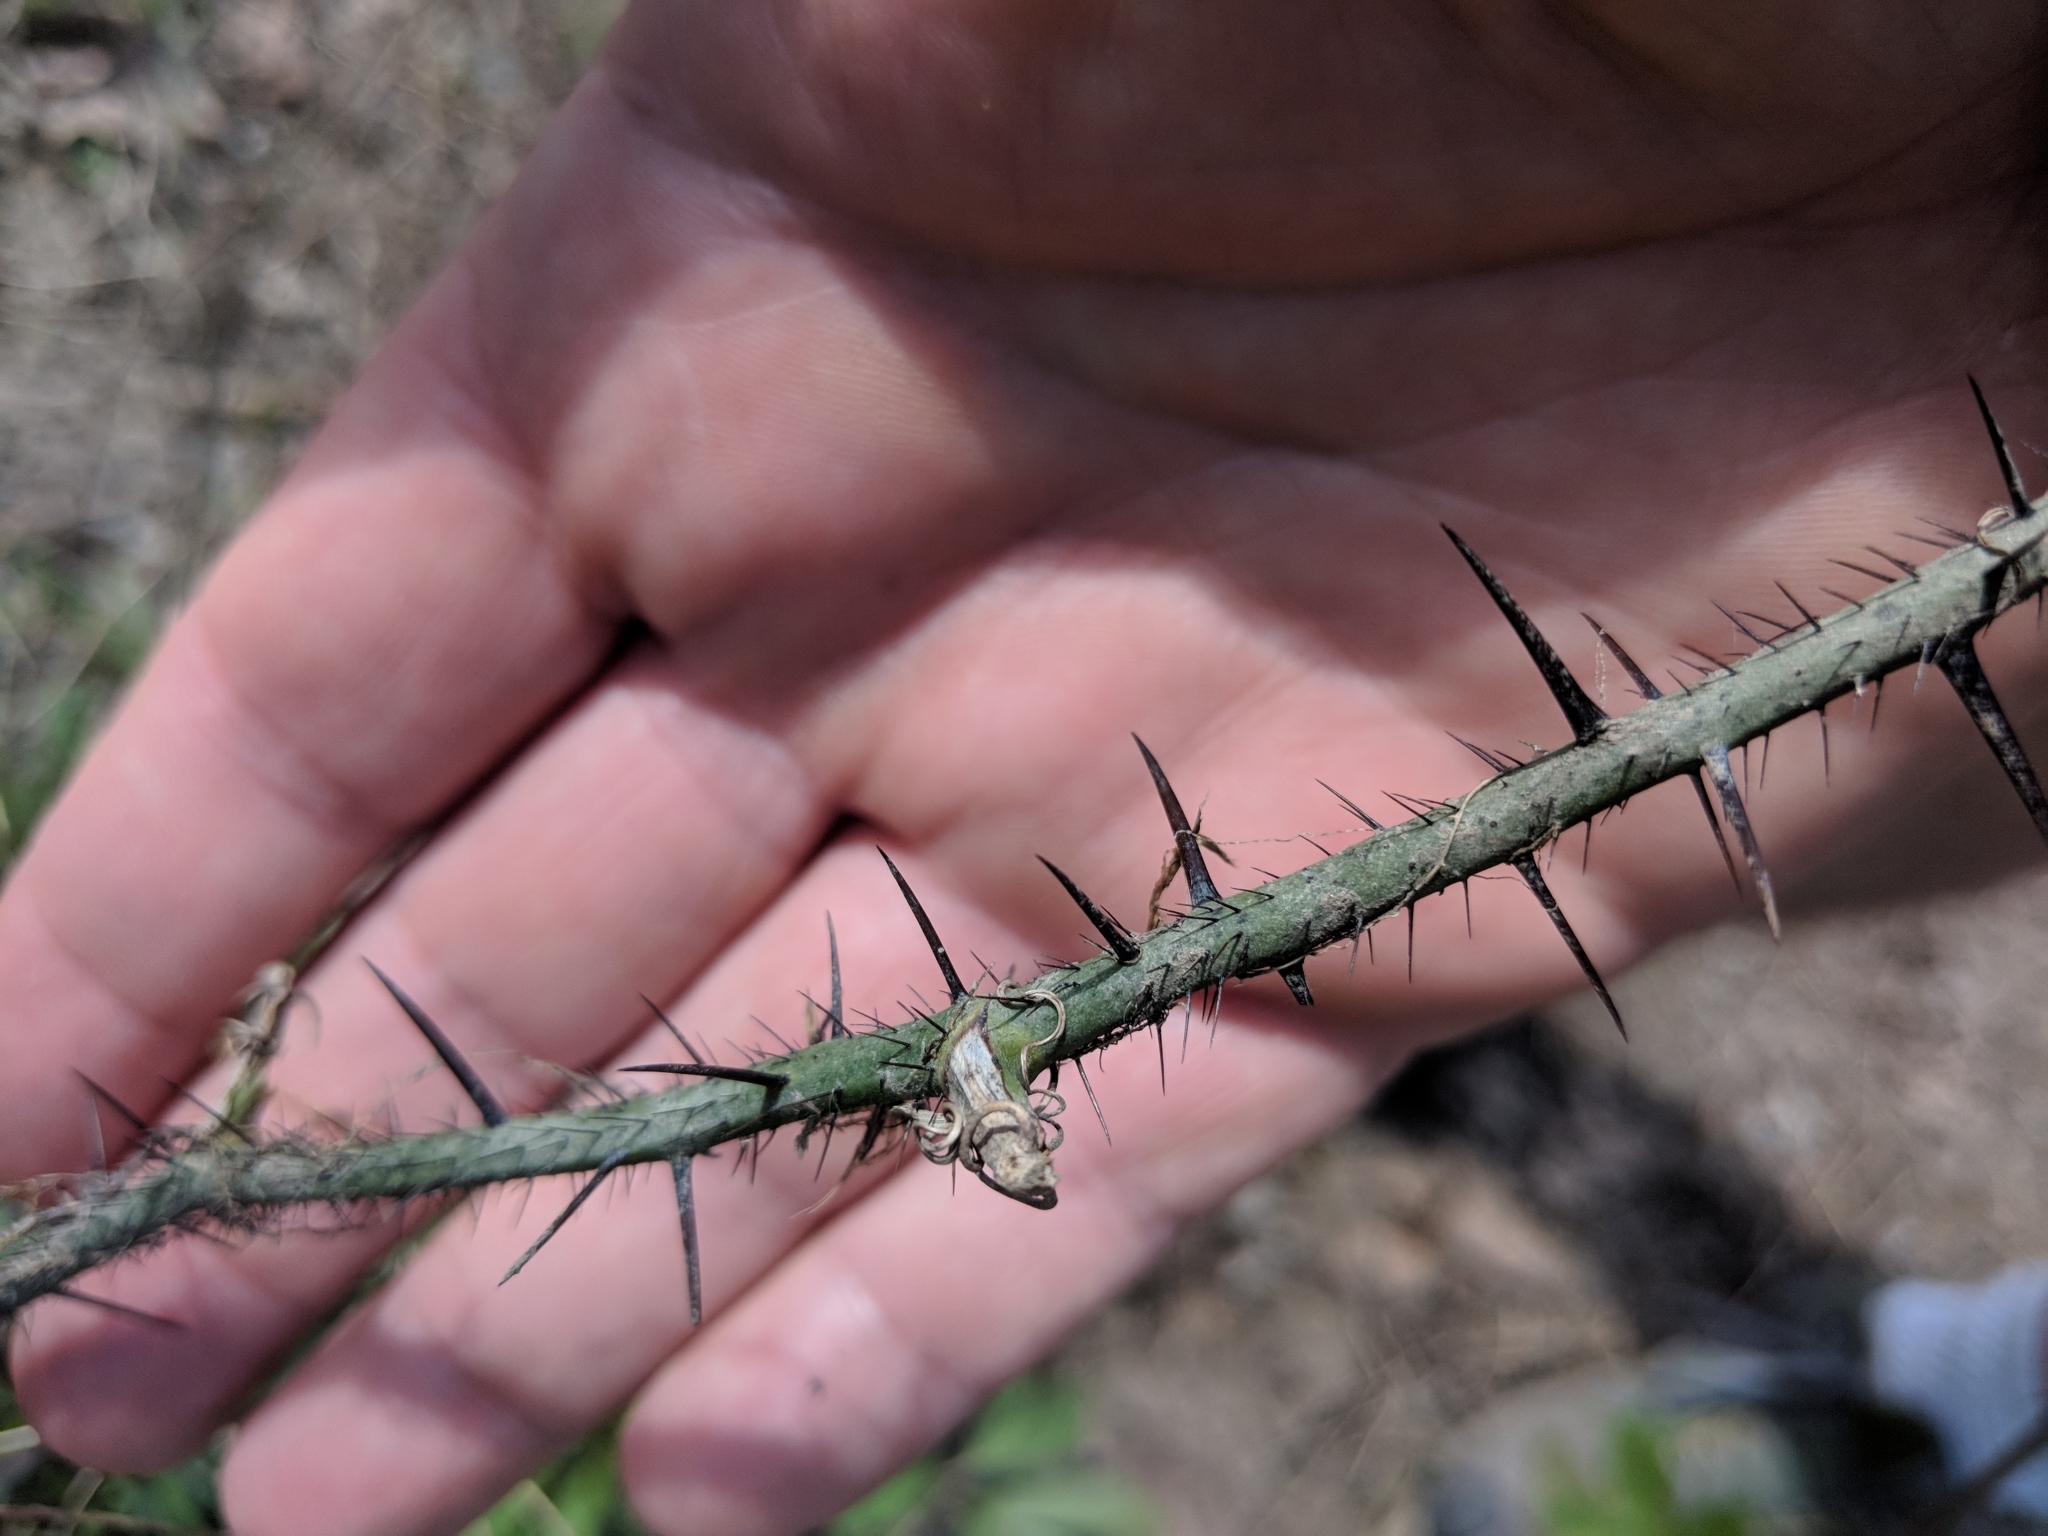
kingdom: Plantae
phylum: Tracheophyta
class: Liliopsida
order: Liliales
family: Smilacaceae
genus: Smilax
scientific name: Smilax tamnoides
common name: Hellfetter
